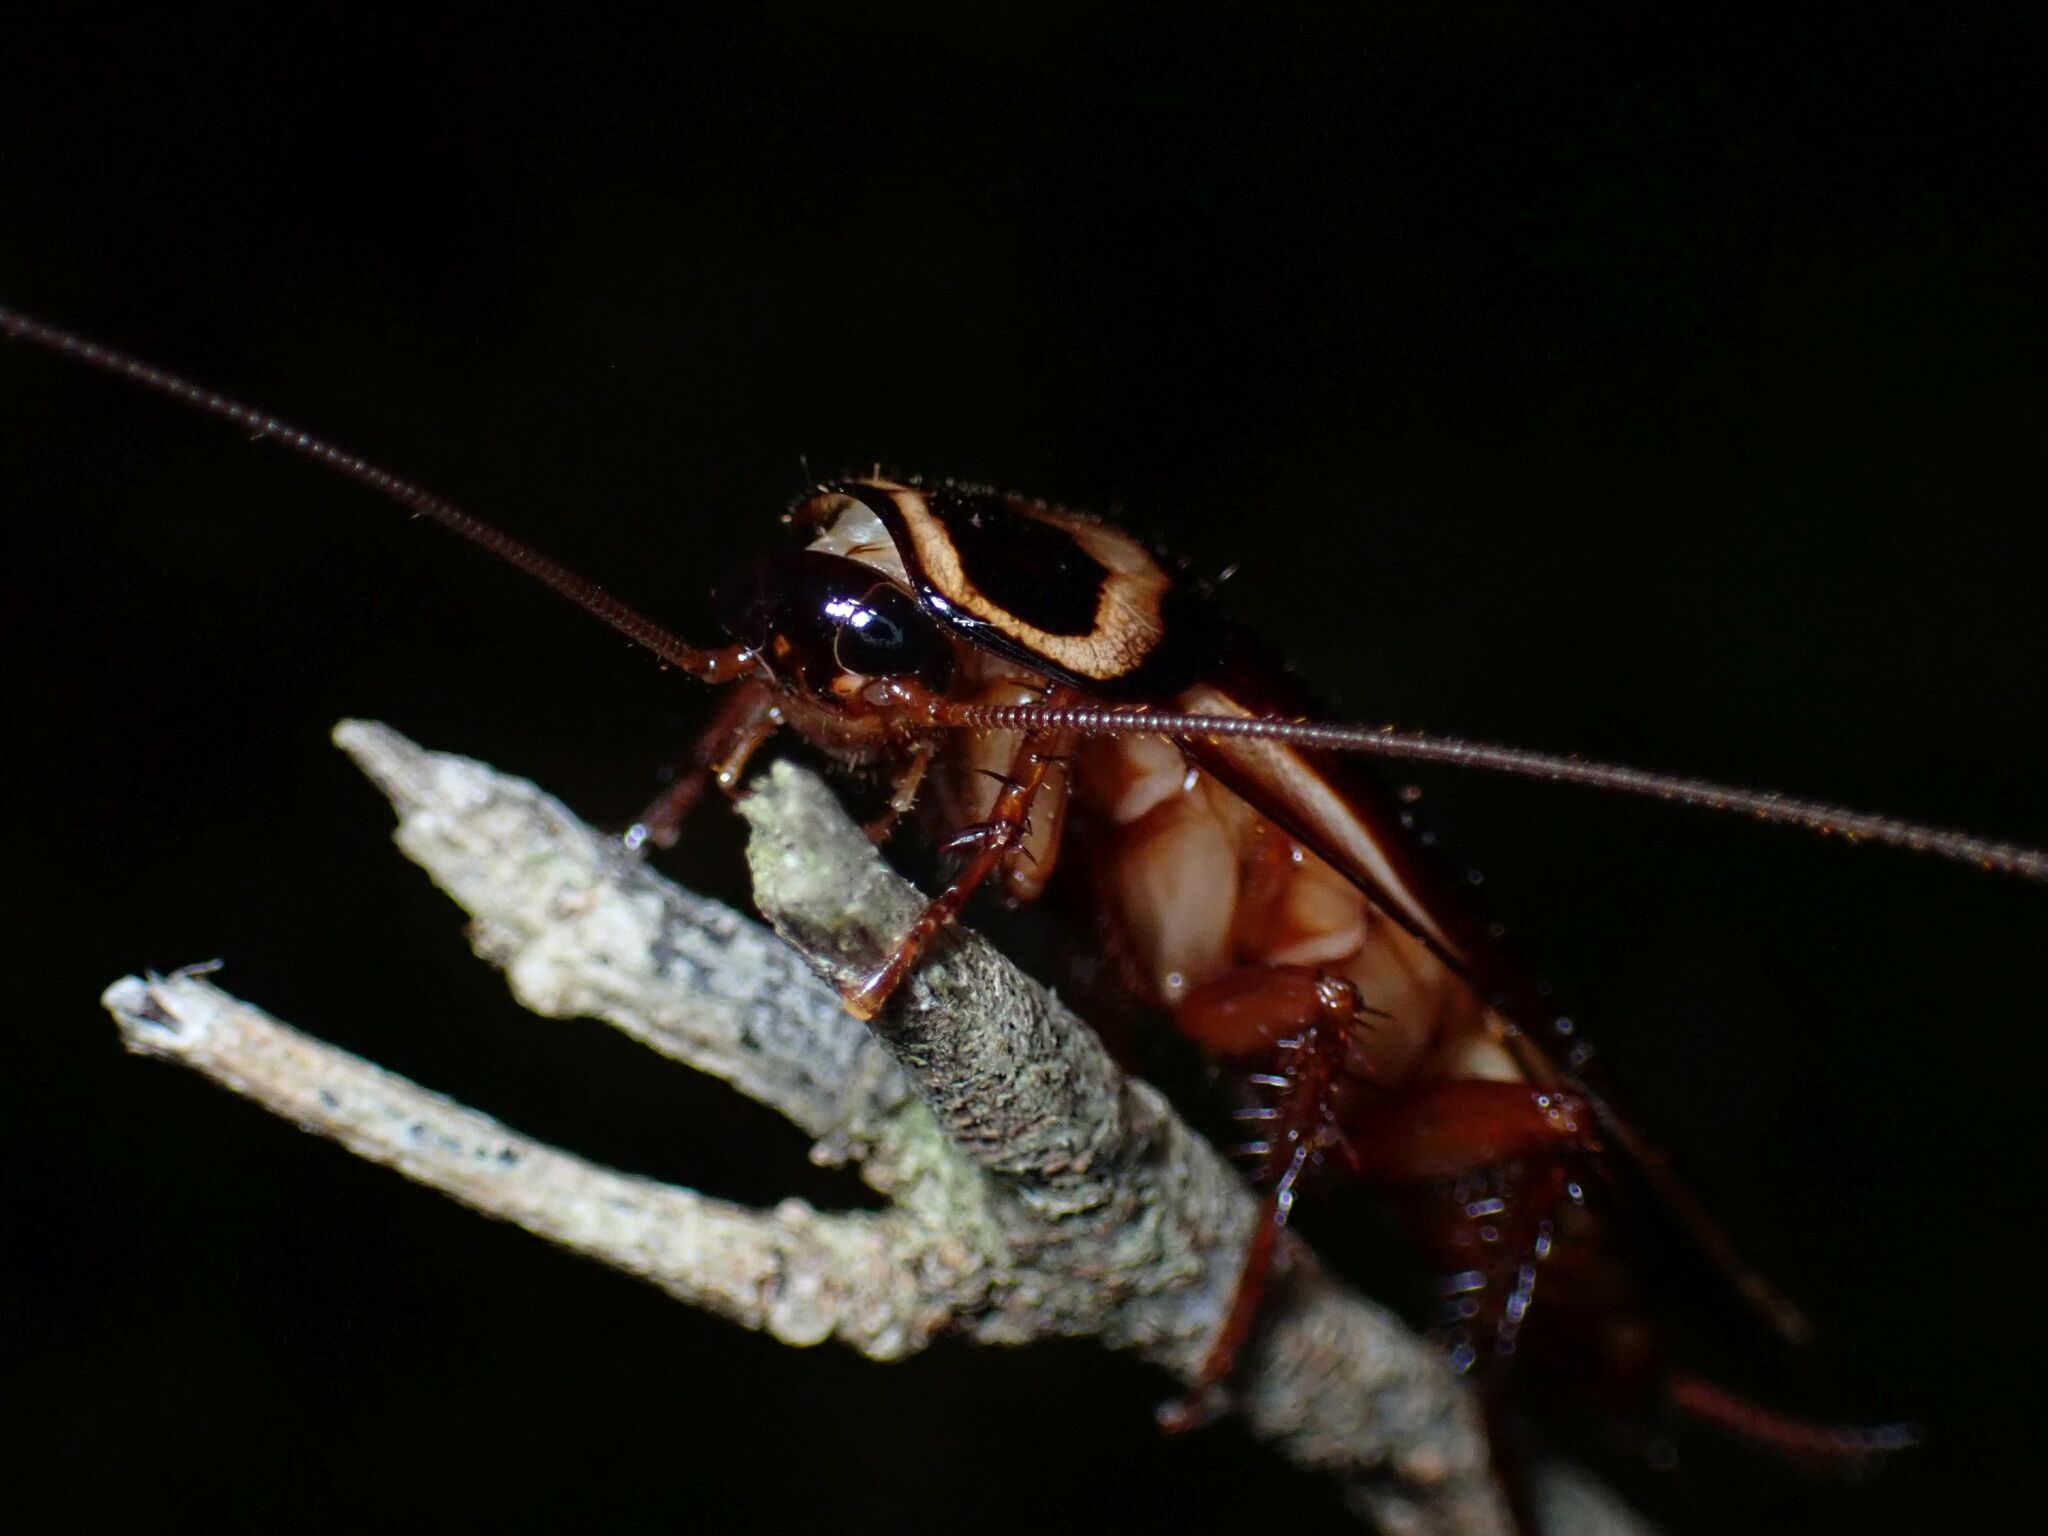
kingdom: Animalia
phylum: Arthropoda
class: Insecta
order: Blattodea
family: Blattidae
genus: Periplaneta
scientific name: Periplaneta australasiae
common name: Australian cockroach
